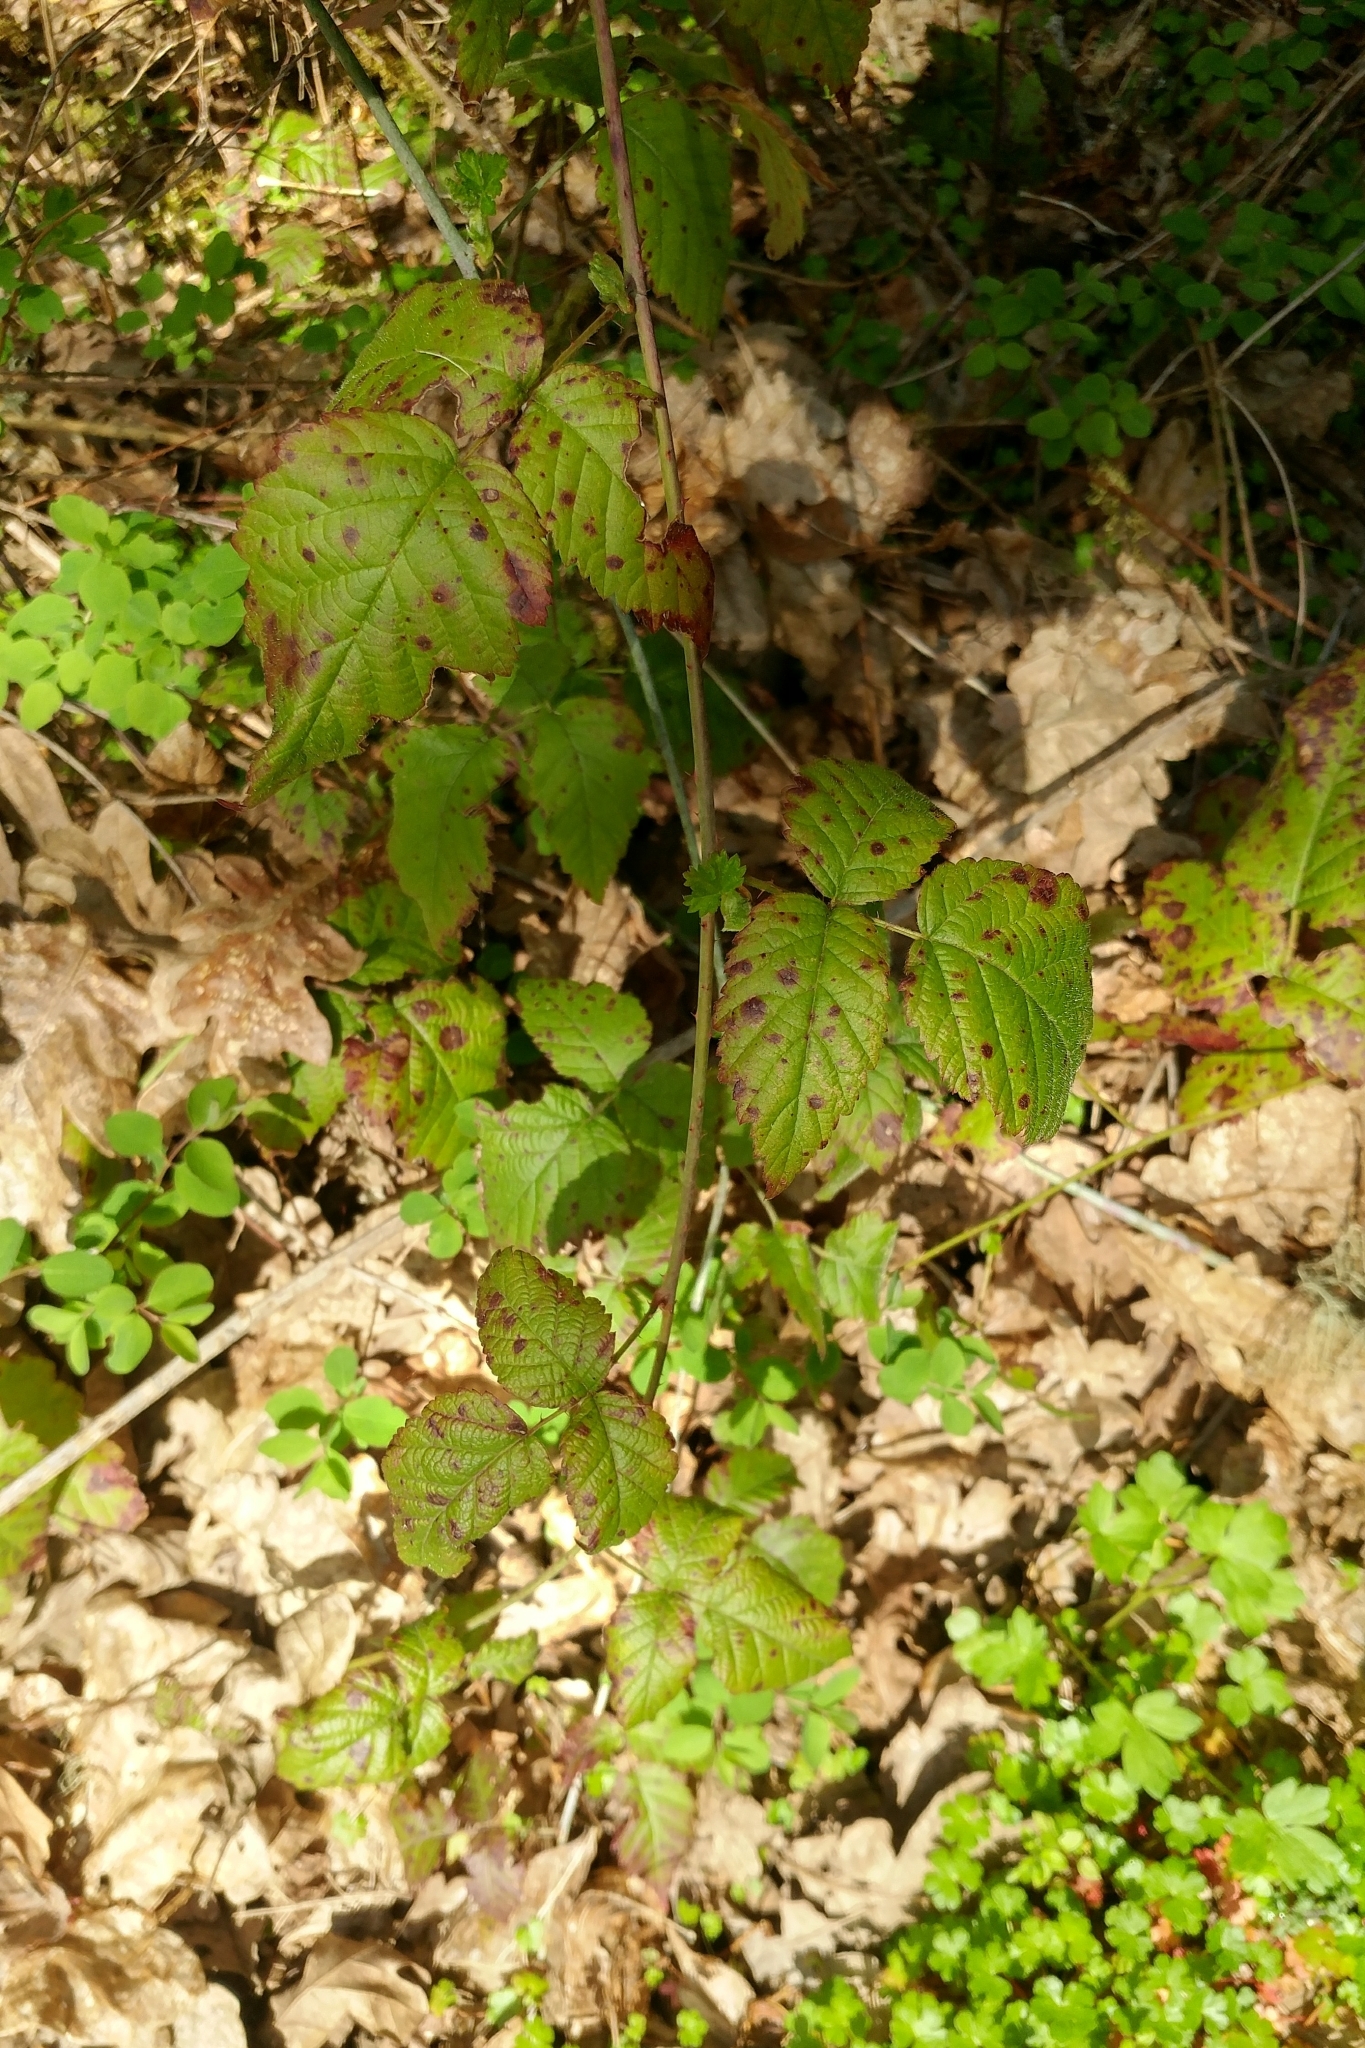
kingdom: Plantae
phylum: Tracheophyta
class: Magnoliopsida
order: Rosales
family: Rosaceae
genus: Rubus
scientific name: Rubus ursinus
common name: Pacific blackberry
